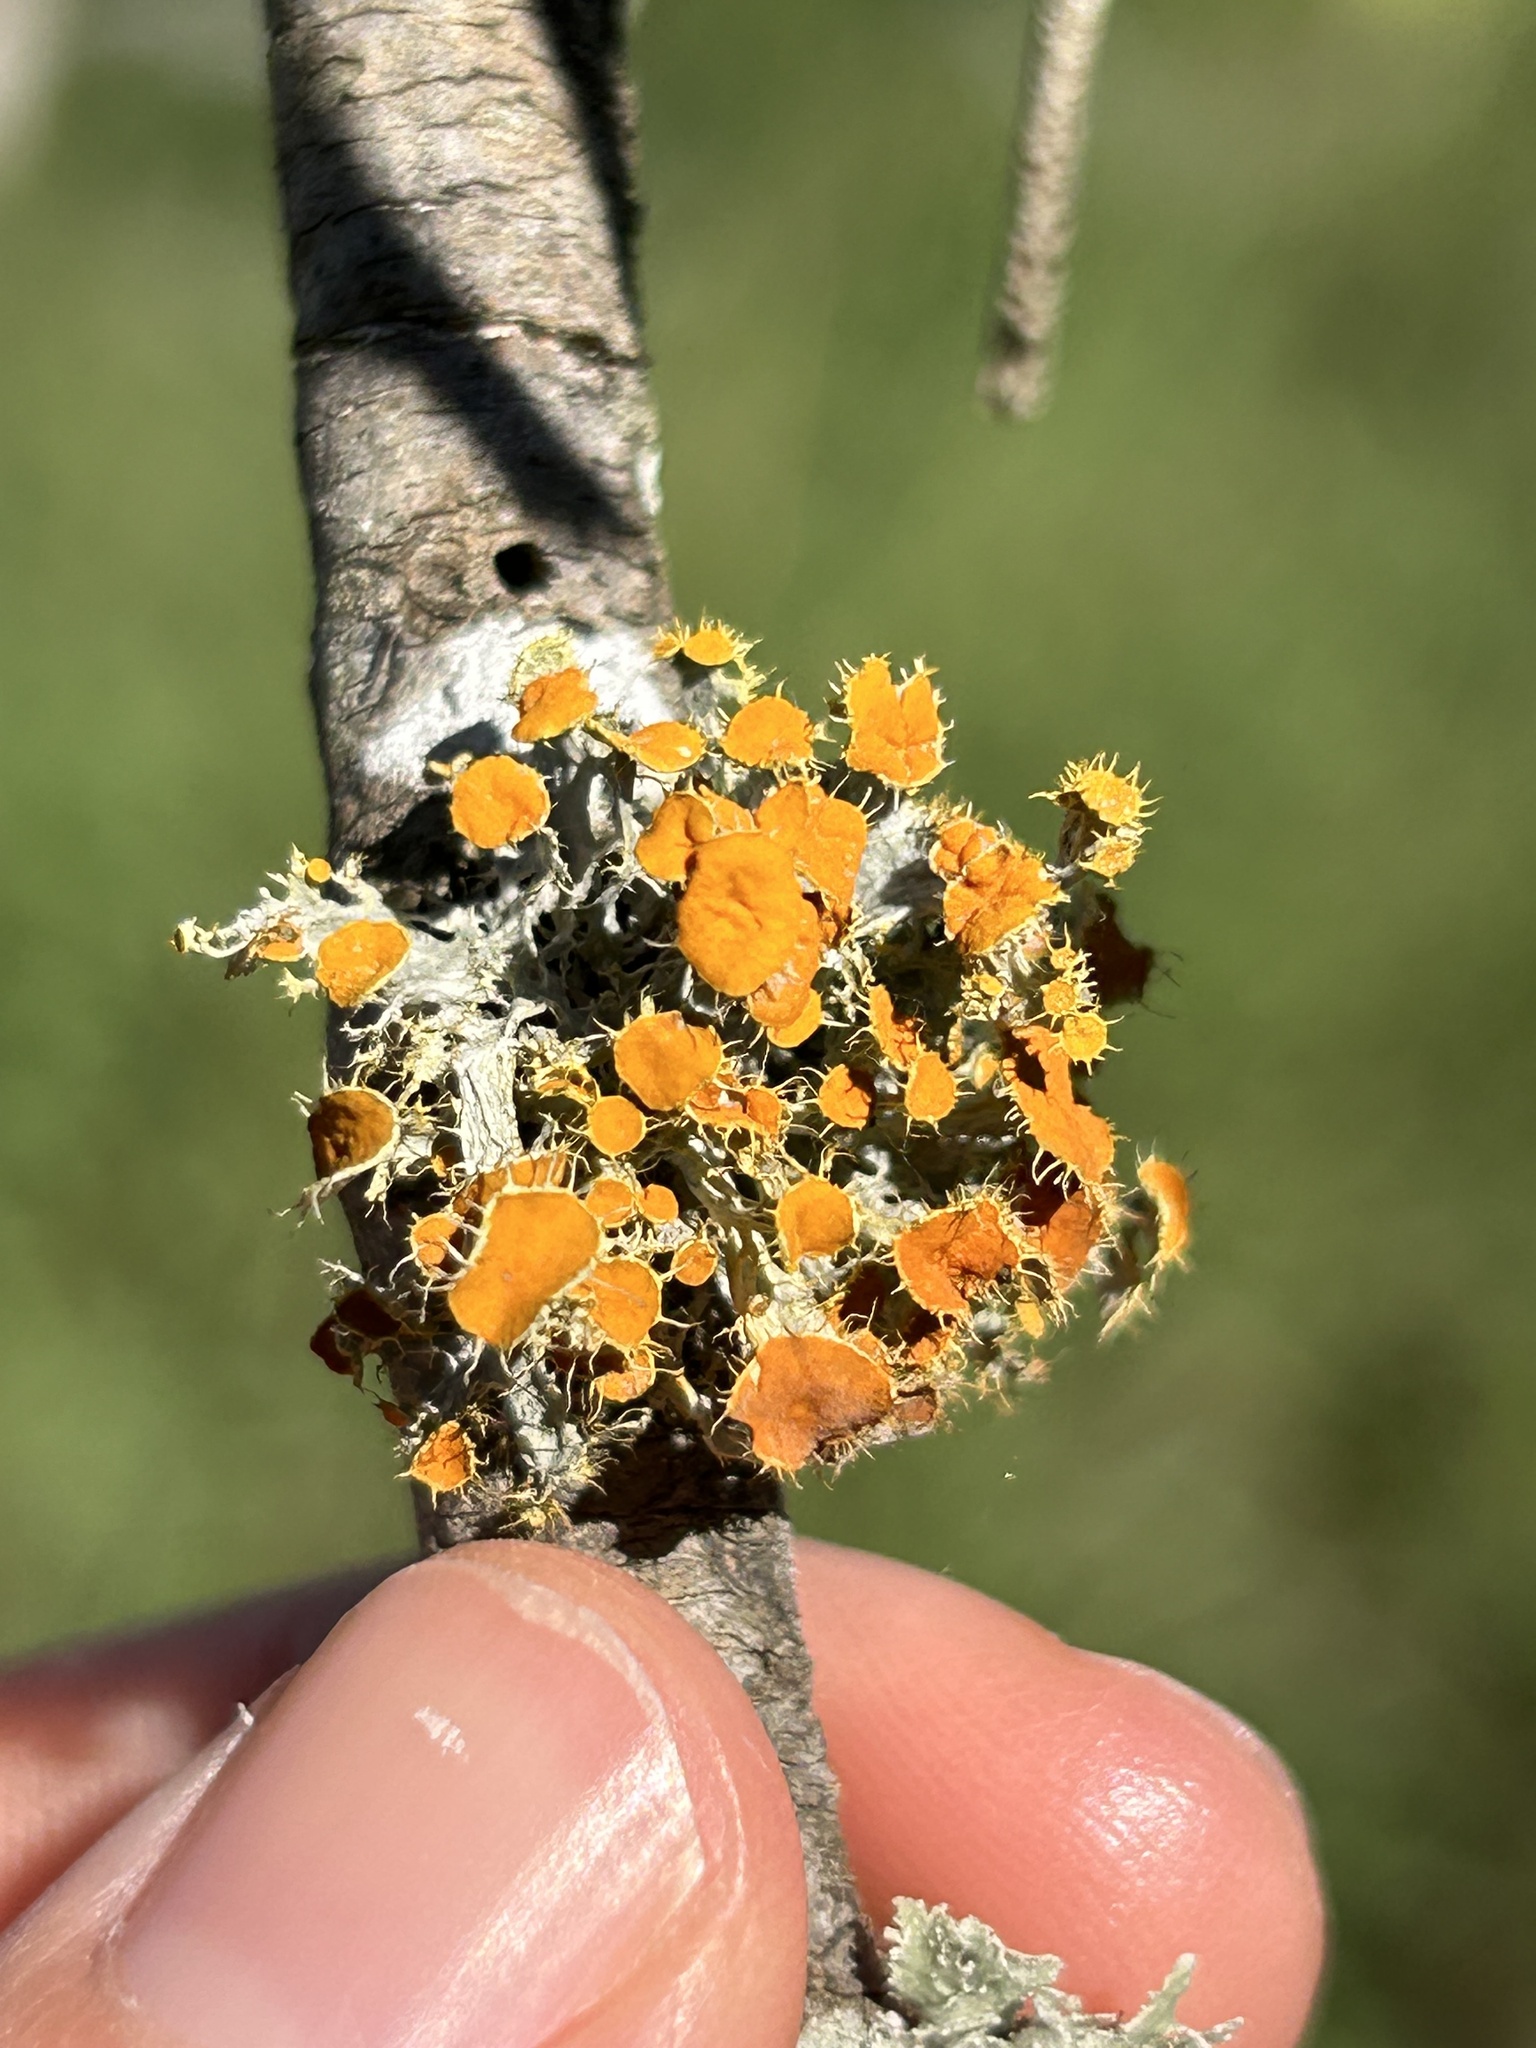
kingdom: Fungi
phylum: Ascomycota
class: Lecanoromycetes
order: Teloschistales
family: Teloschistaceae
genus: Niorma
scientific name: Niorma chrysophthalma
